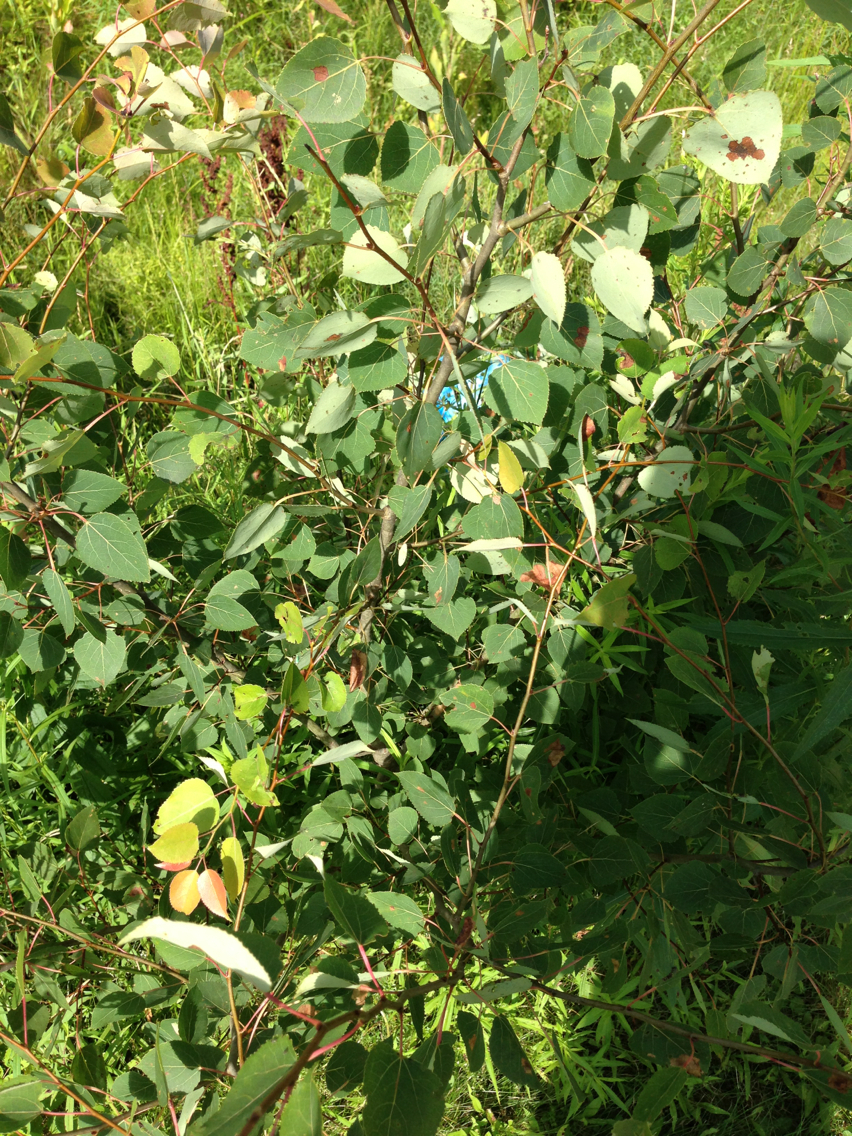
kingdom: Plantae
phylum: Tracheophyta
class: Magnoliopsida
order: Malpighiales
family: Salicaceae
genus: Populus
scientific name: Populus tremuloides
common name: Quaking aspen
